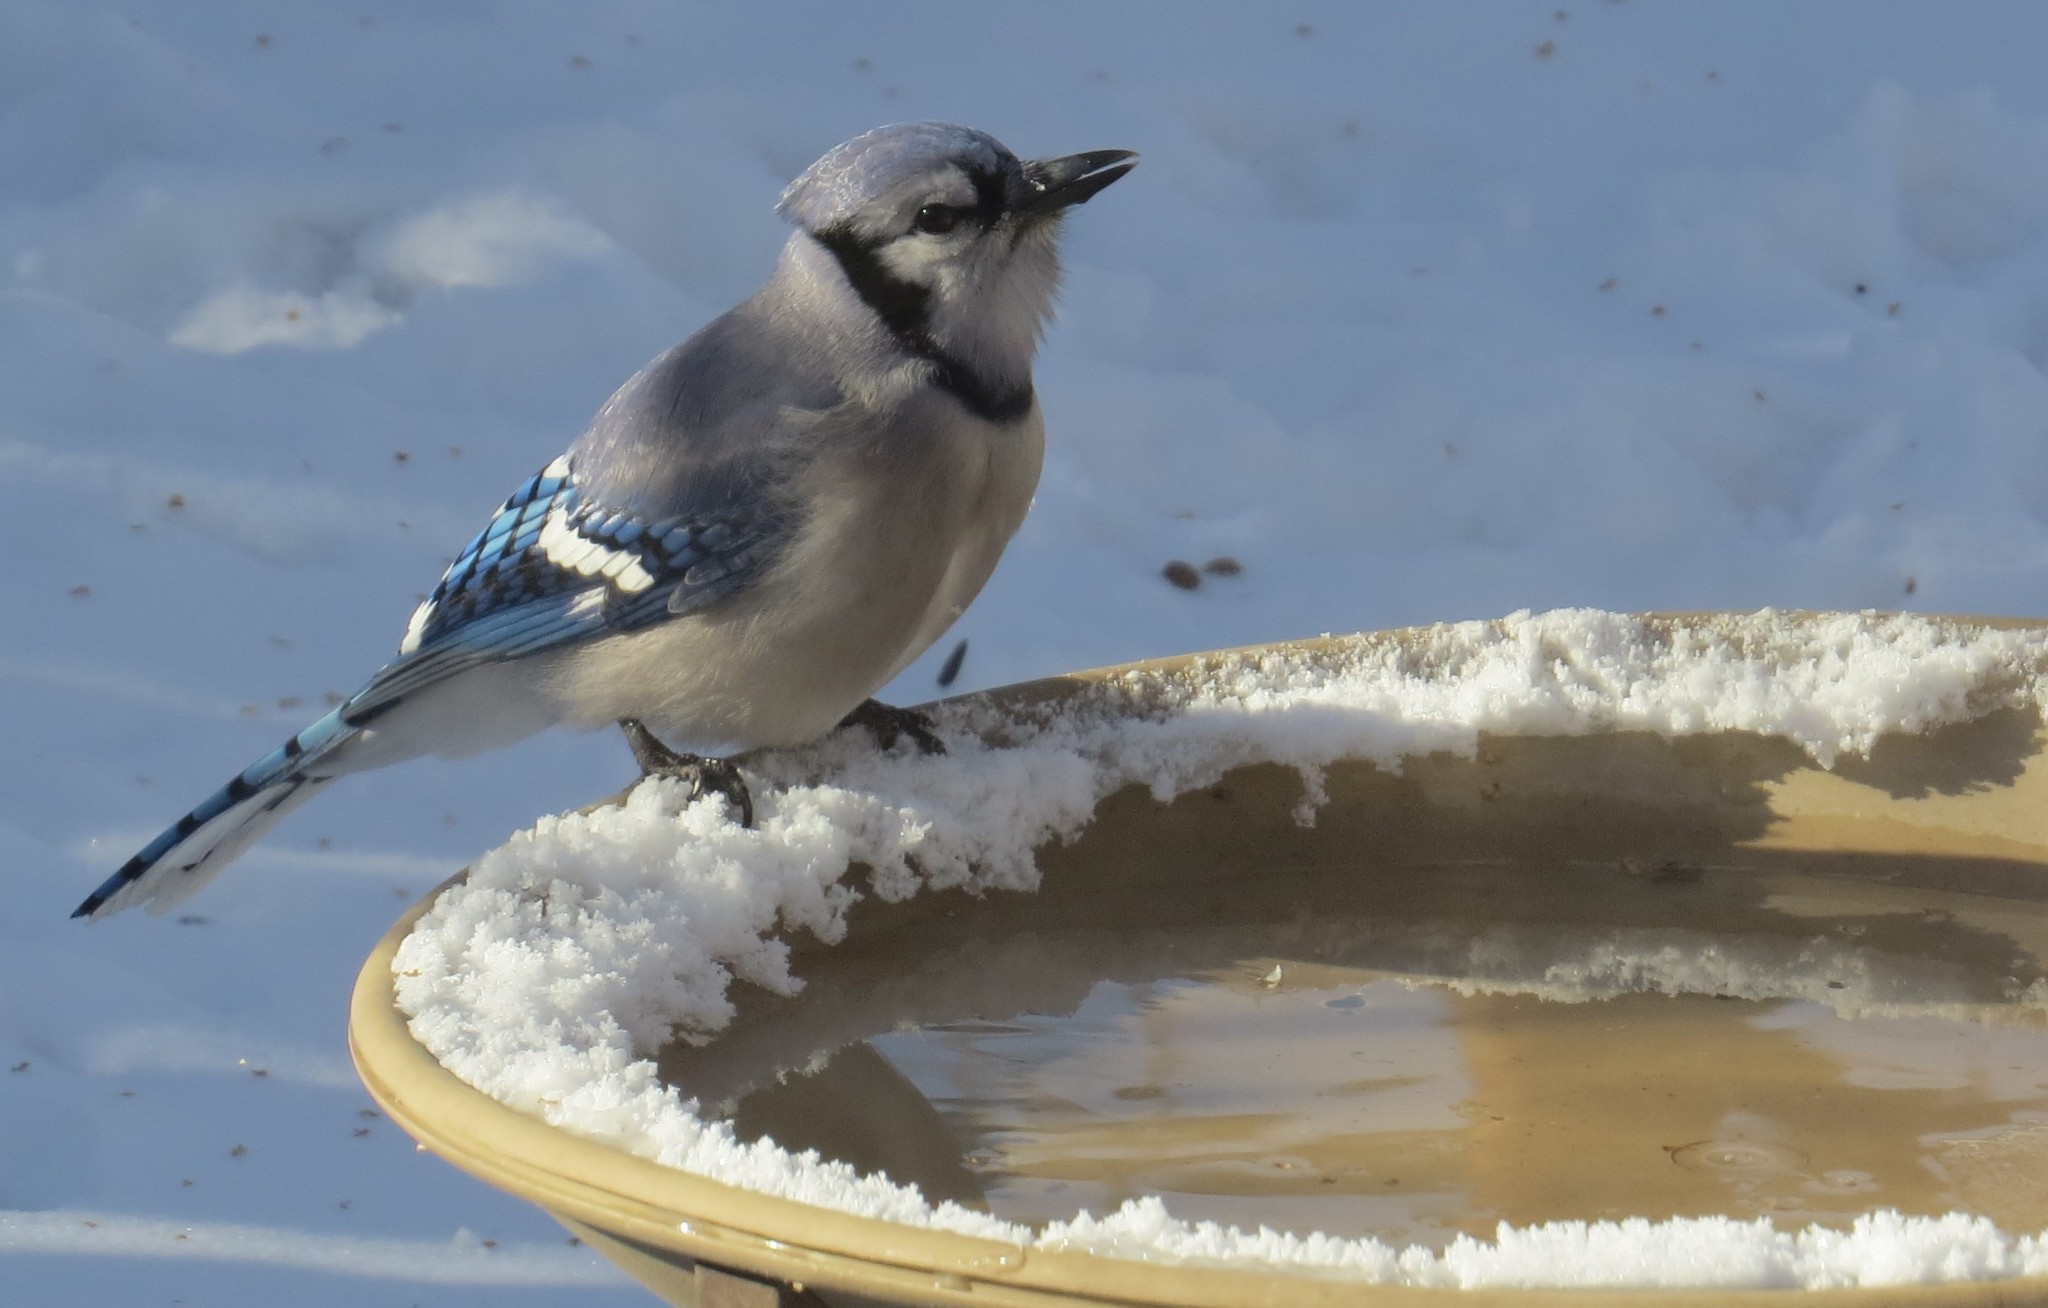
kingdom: Animalia
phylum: Chordata
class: Aves
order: Passeriformes
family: Corvidae
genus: Cyanocitta
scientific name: Cyanocitta cristata
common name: Blue jay
